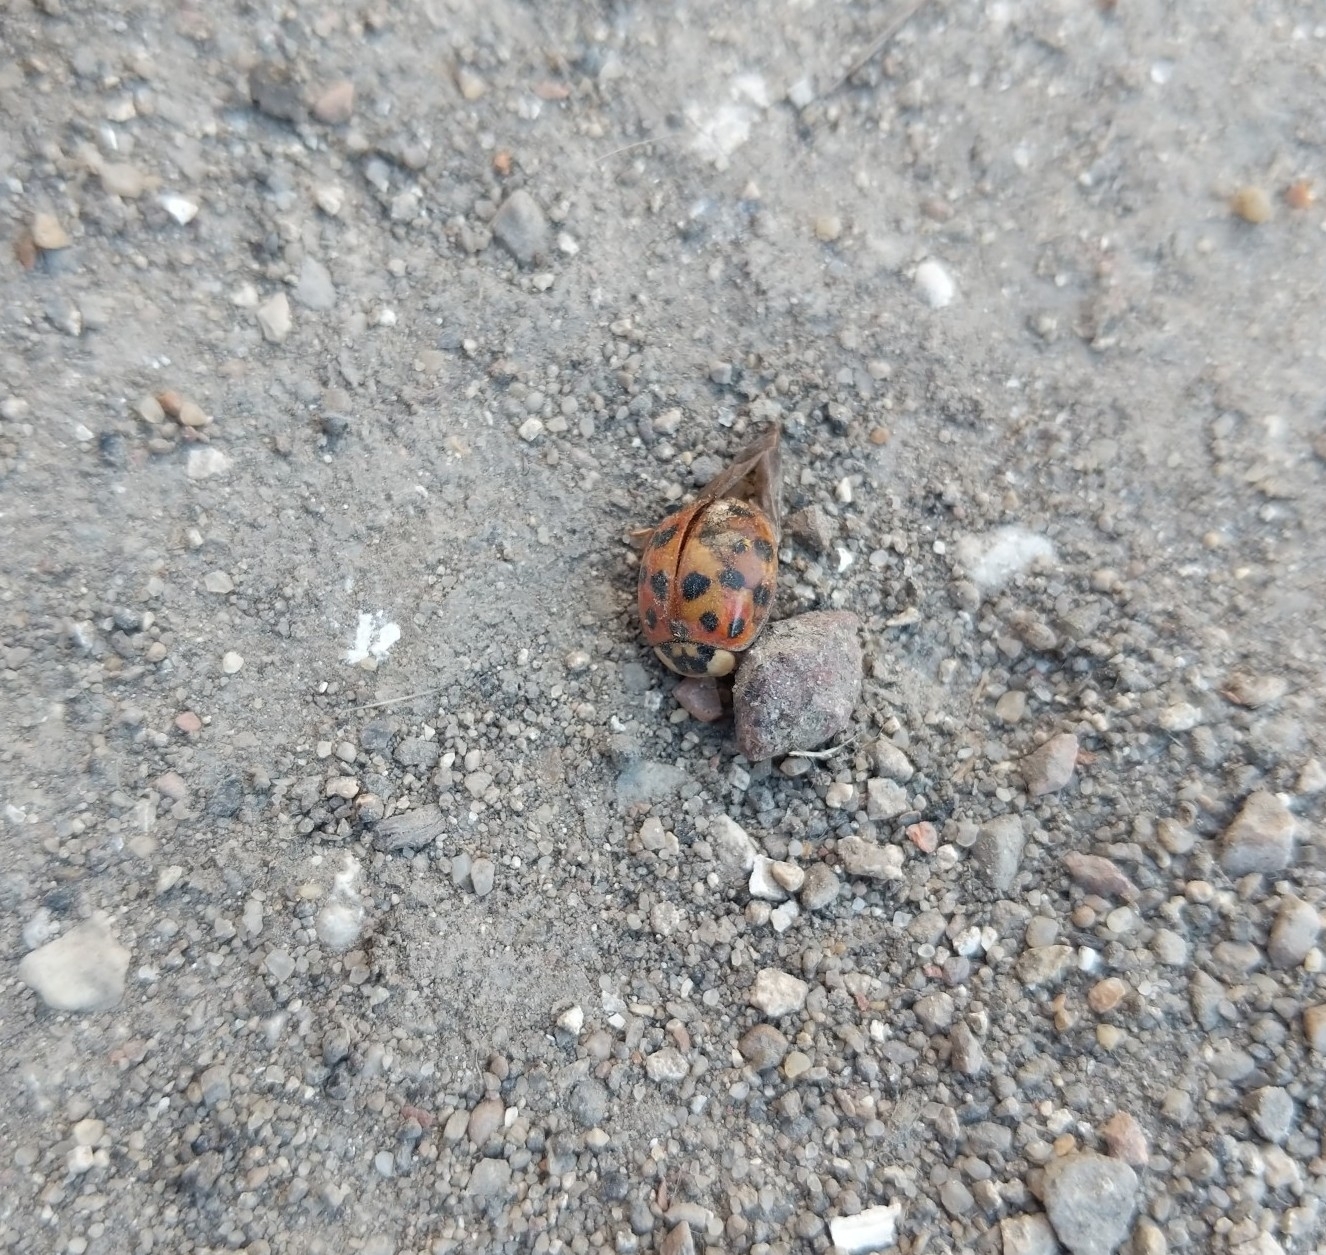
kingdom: Animalia
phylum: Arthropoda
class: Insecta
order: Coleoptera
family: Coccinellidae
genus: Harmonia
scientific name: Harmonia axyridis
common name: Harlequin ladybird
